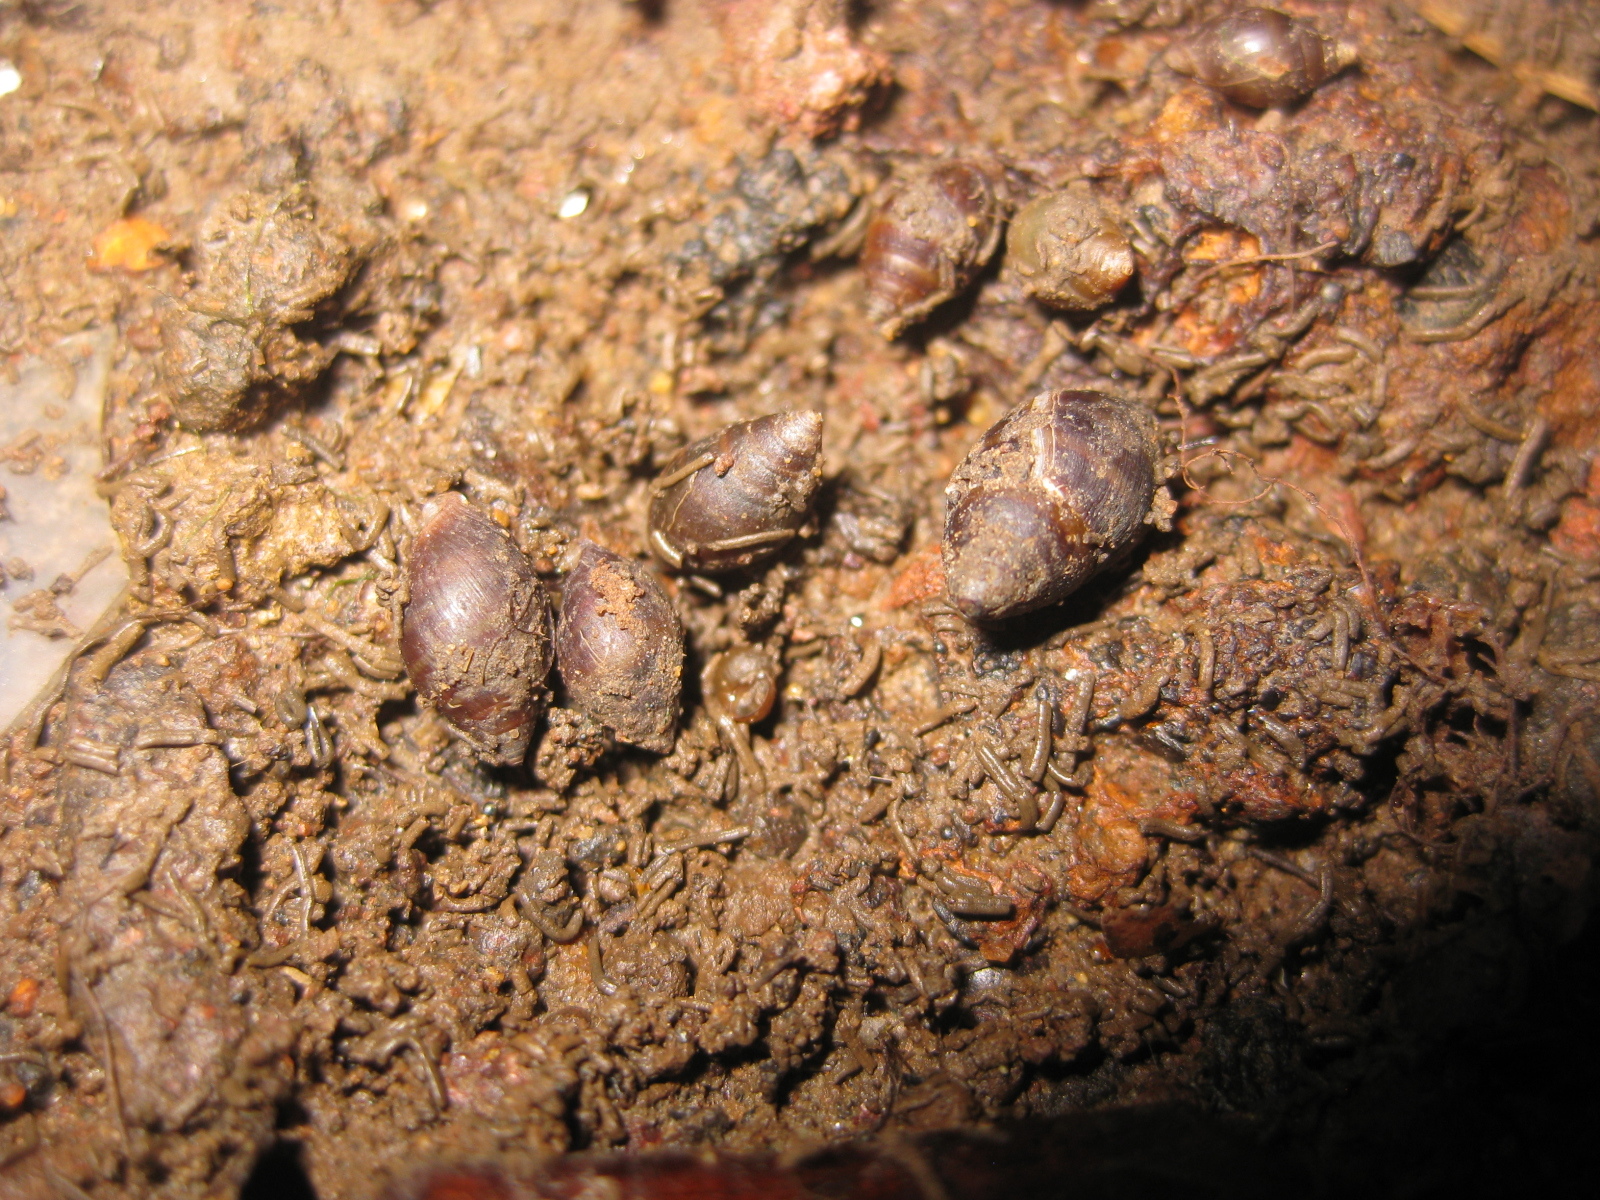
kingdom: Animalia
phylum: Mollusca
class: Gastropoda
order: Ellobiida
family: Ellobiidae
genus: Pleuroloba
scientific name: Pleuroloba costellaris
